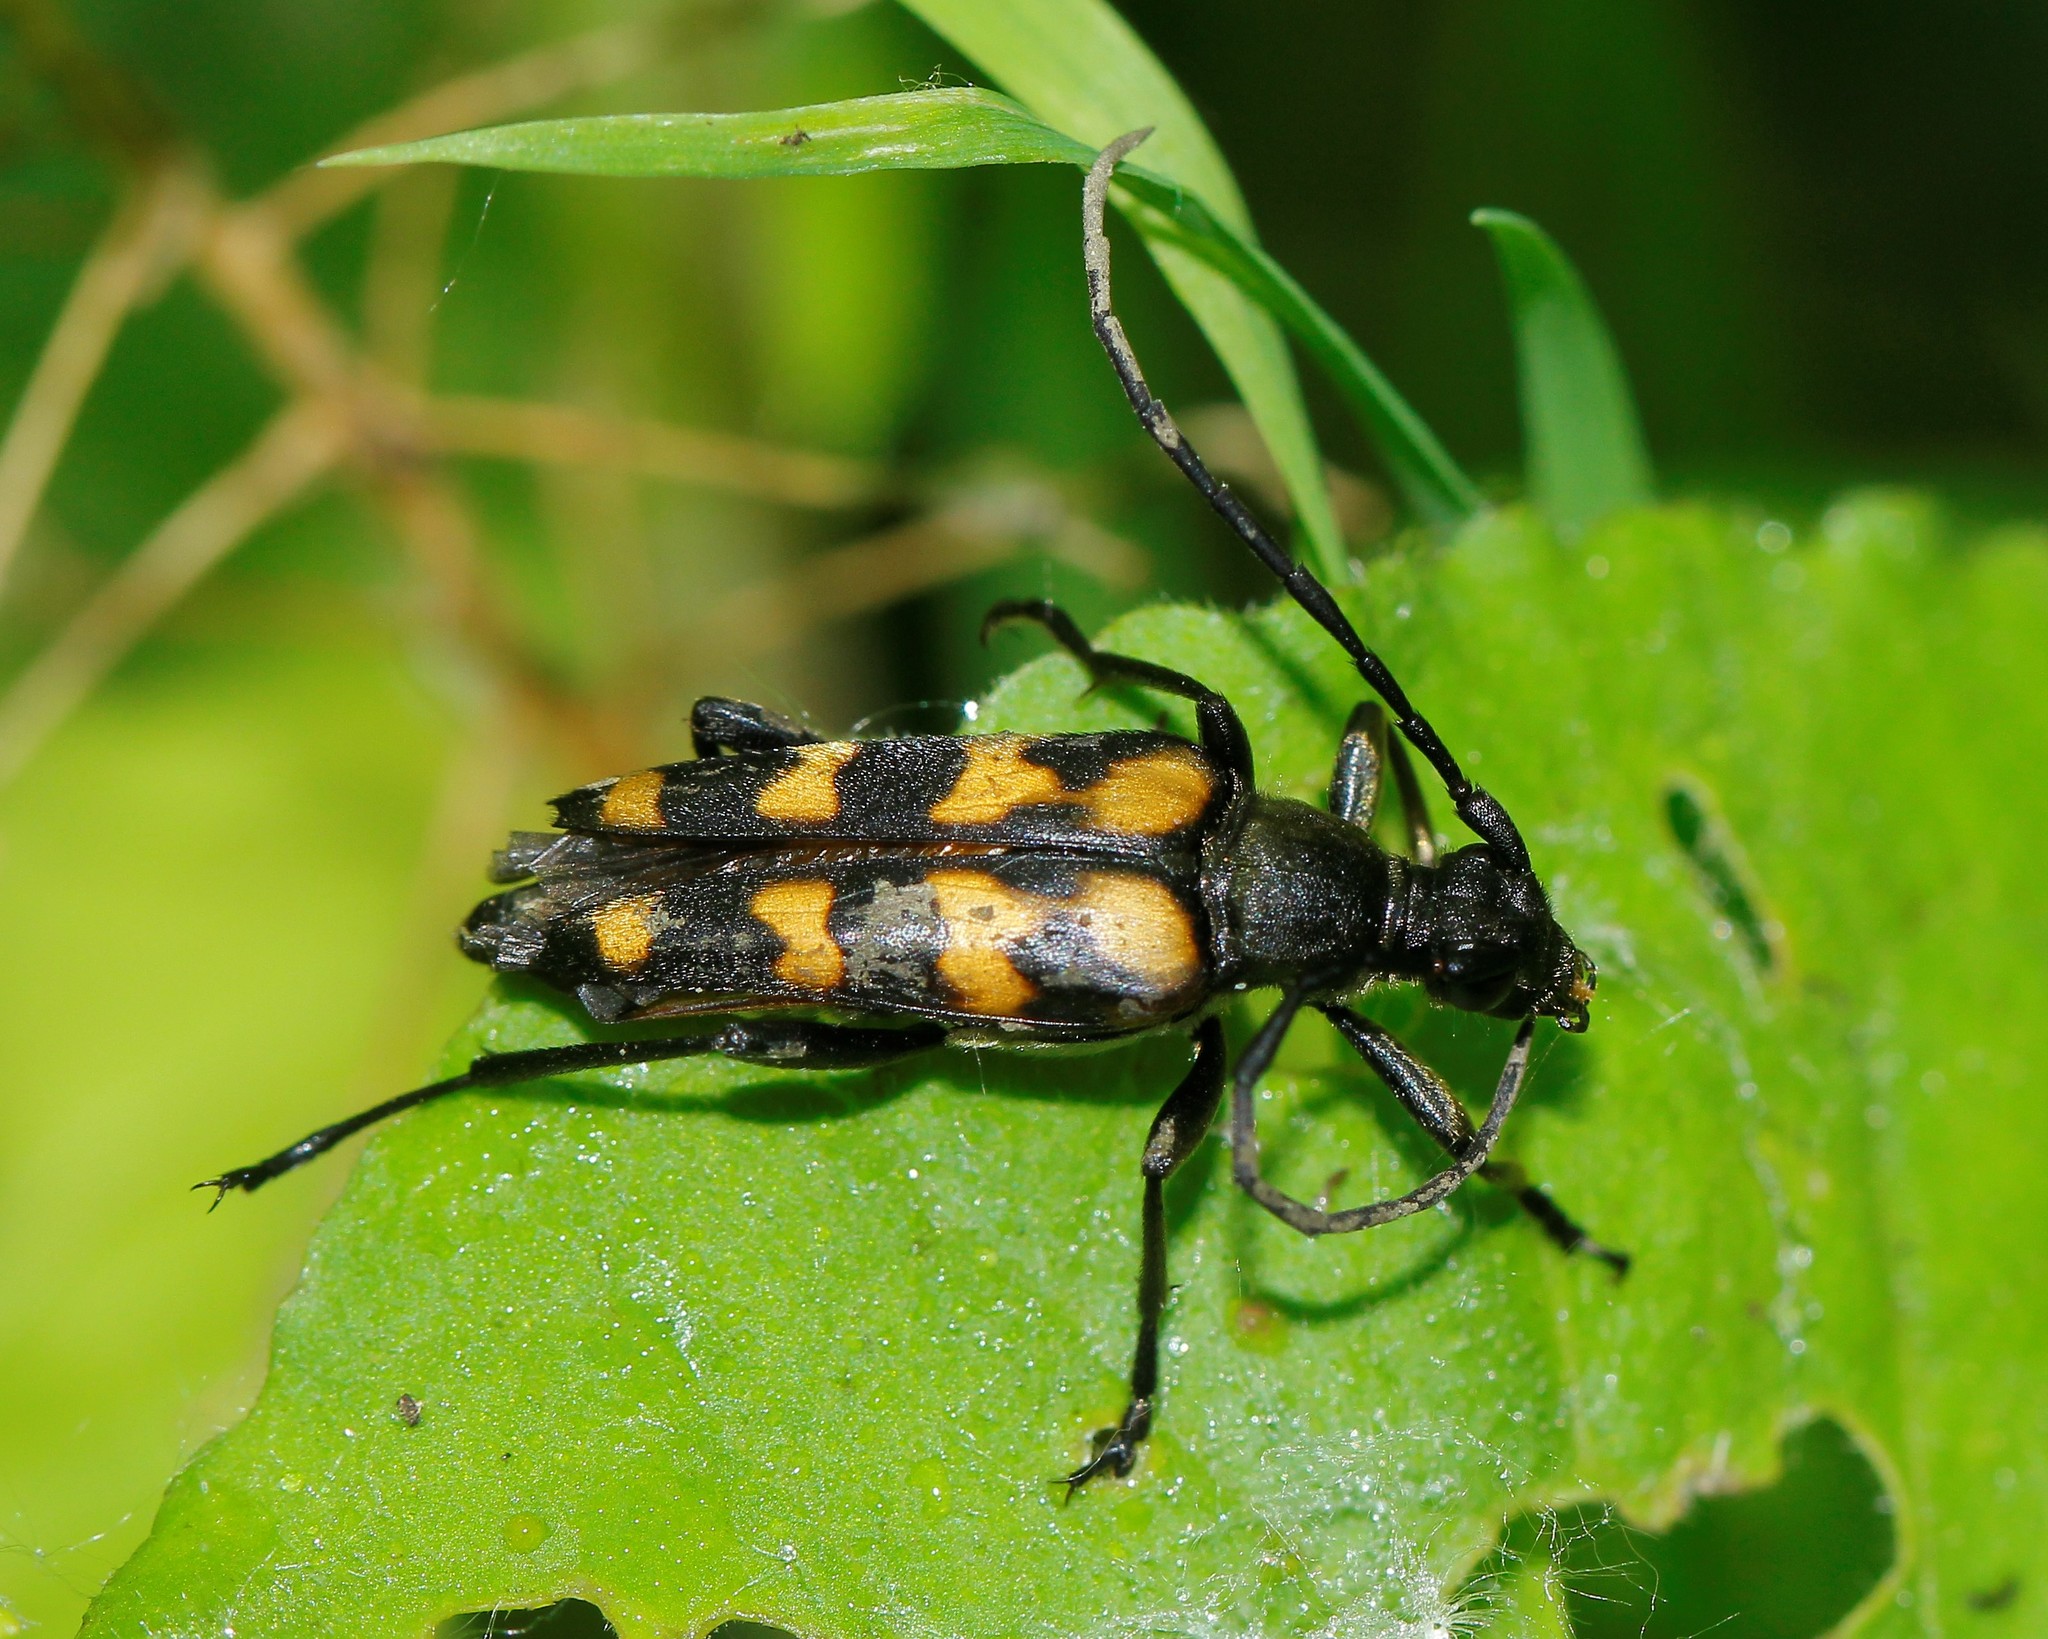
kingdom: Animalia
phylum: Arthropoda
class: Insecta
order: Coleoptera
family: Cerambycidae
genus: Leptura
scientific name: Leptura quadrifasciata
